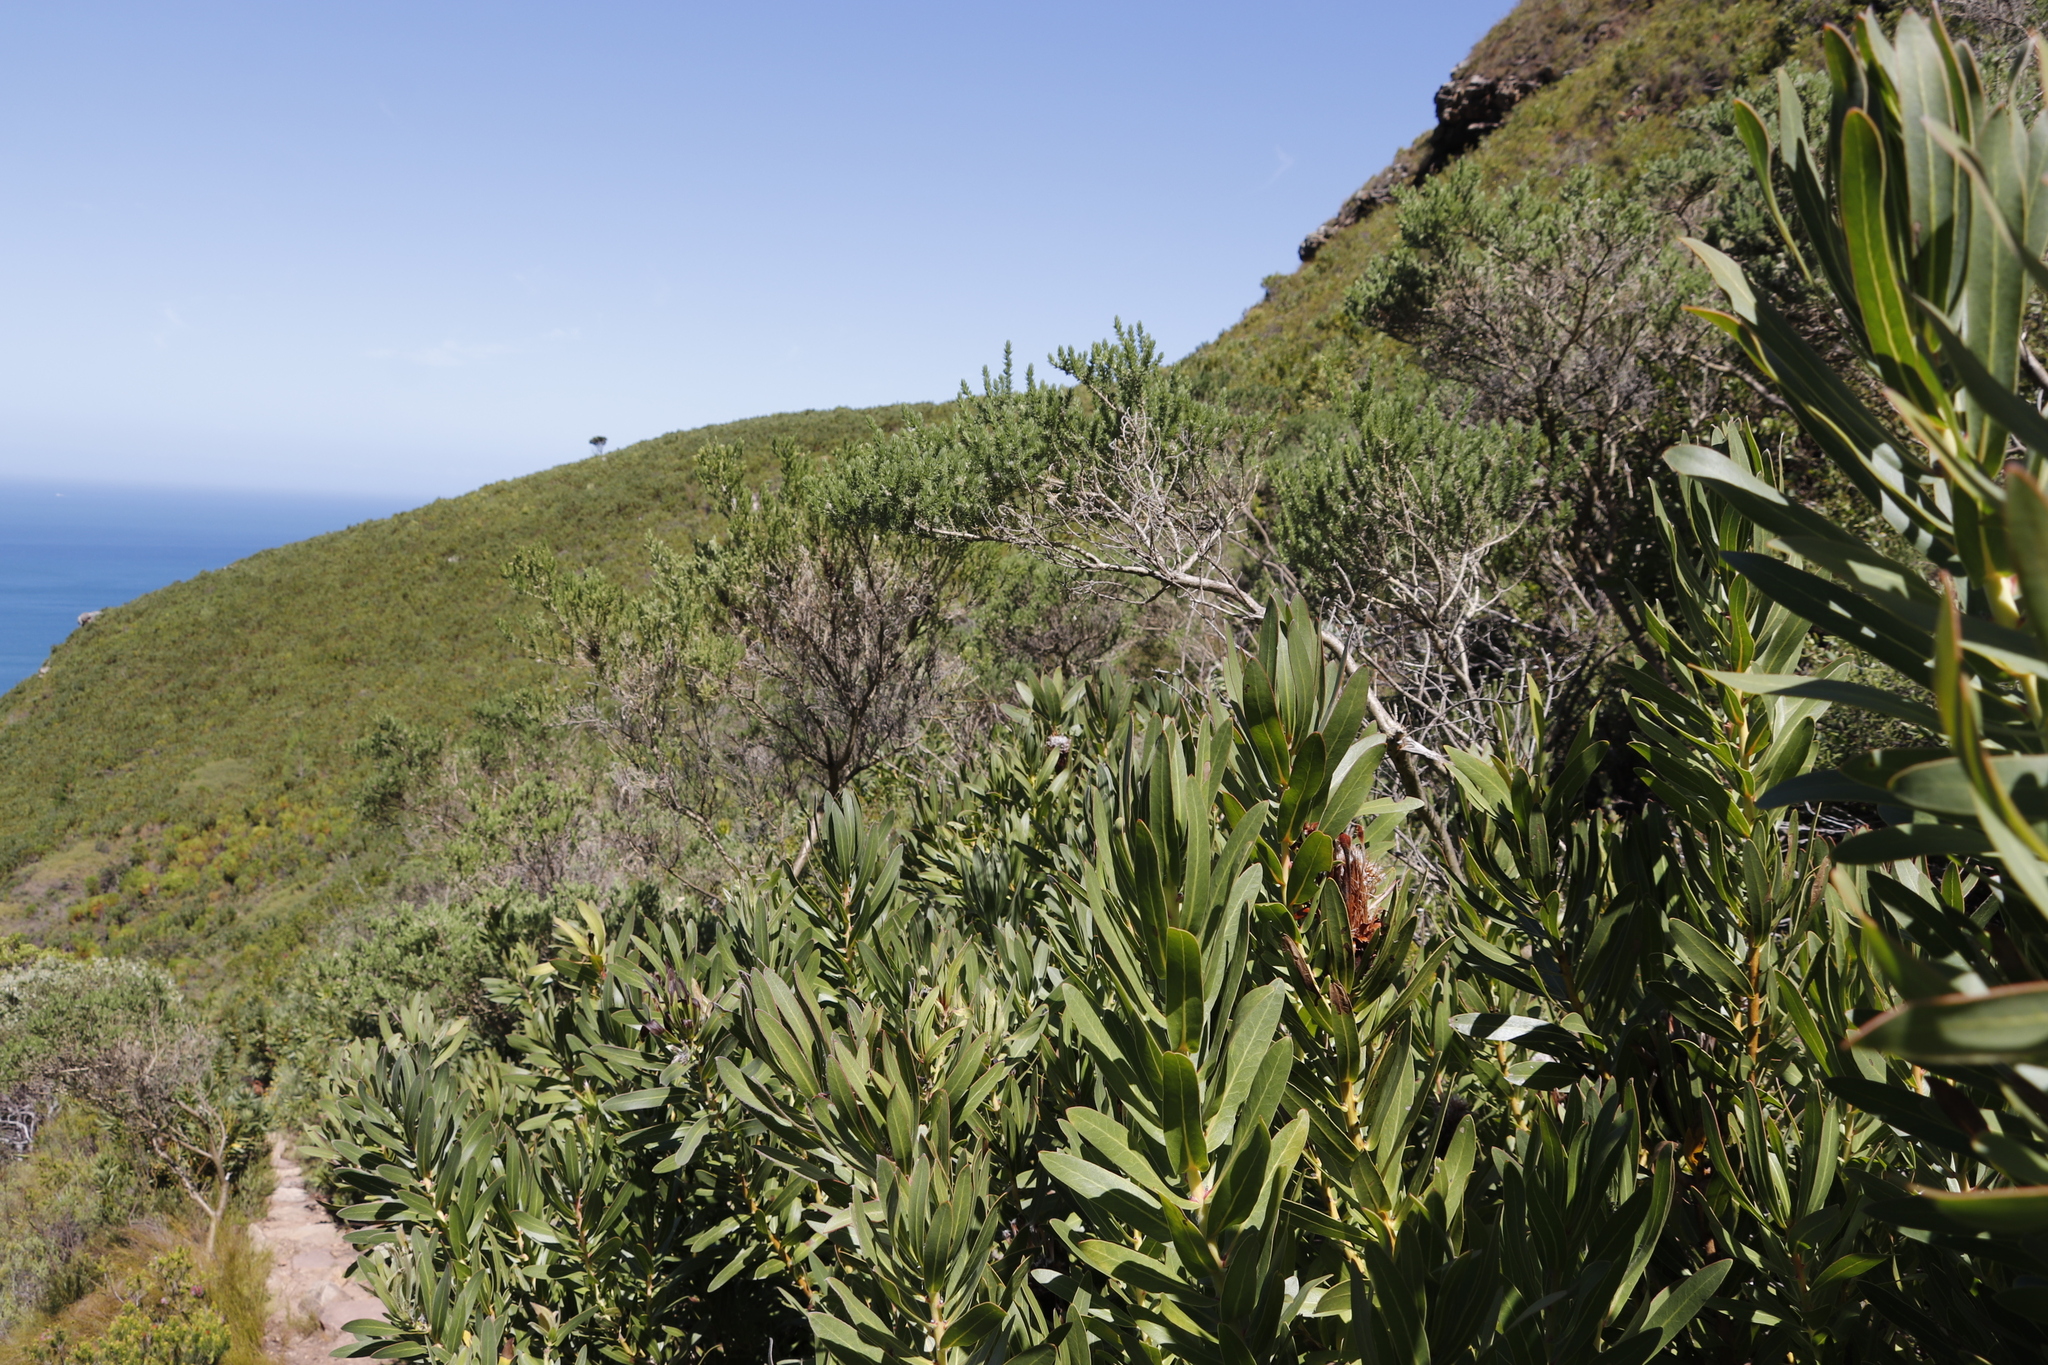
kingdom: Plantae
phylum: Tracheophyta
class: Magnoliopsida
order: Proteales
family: Proteaceae
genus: Protea
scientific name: Protea lepidocarpodendron
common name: Black-bearded protea
